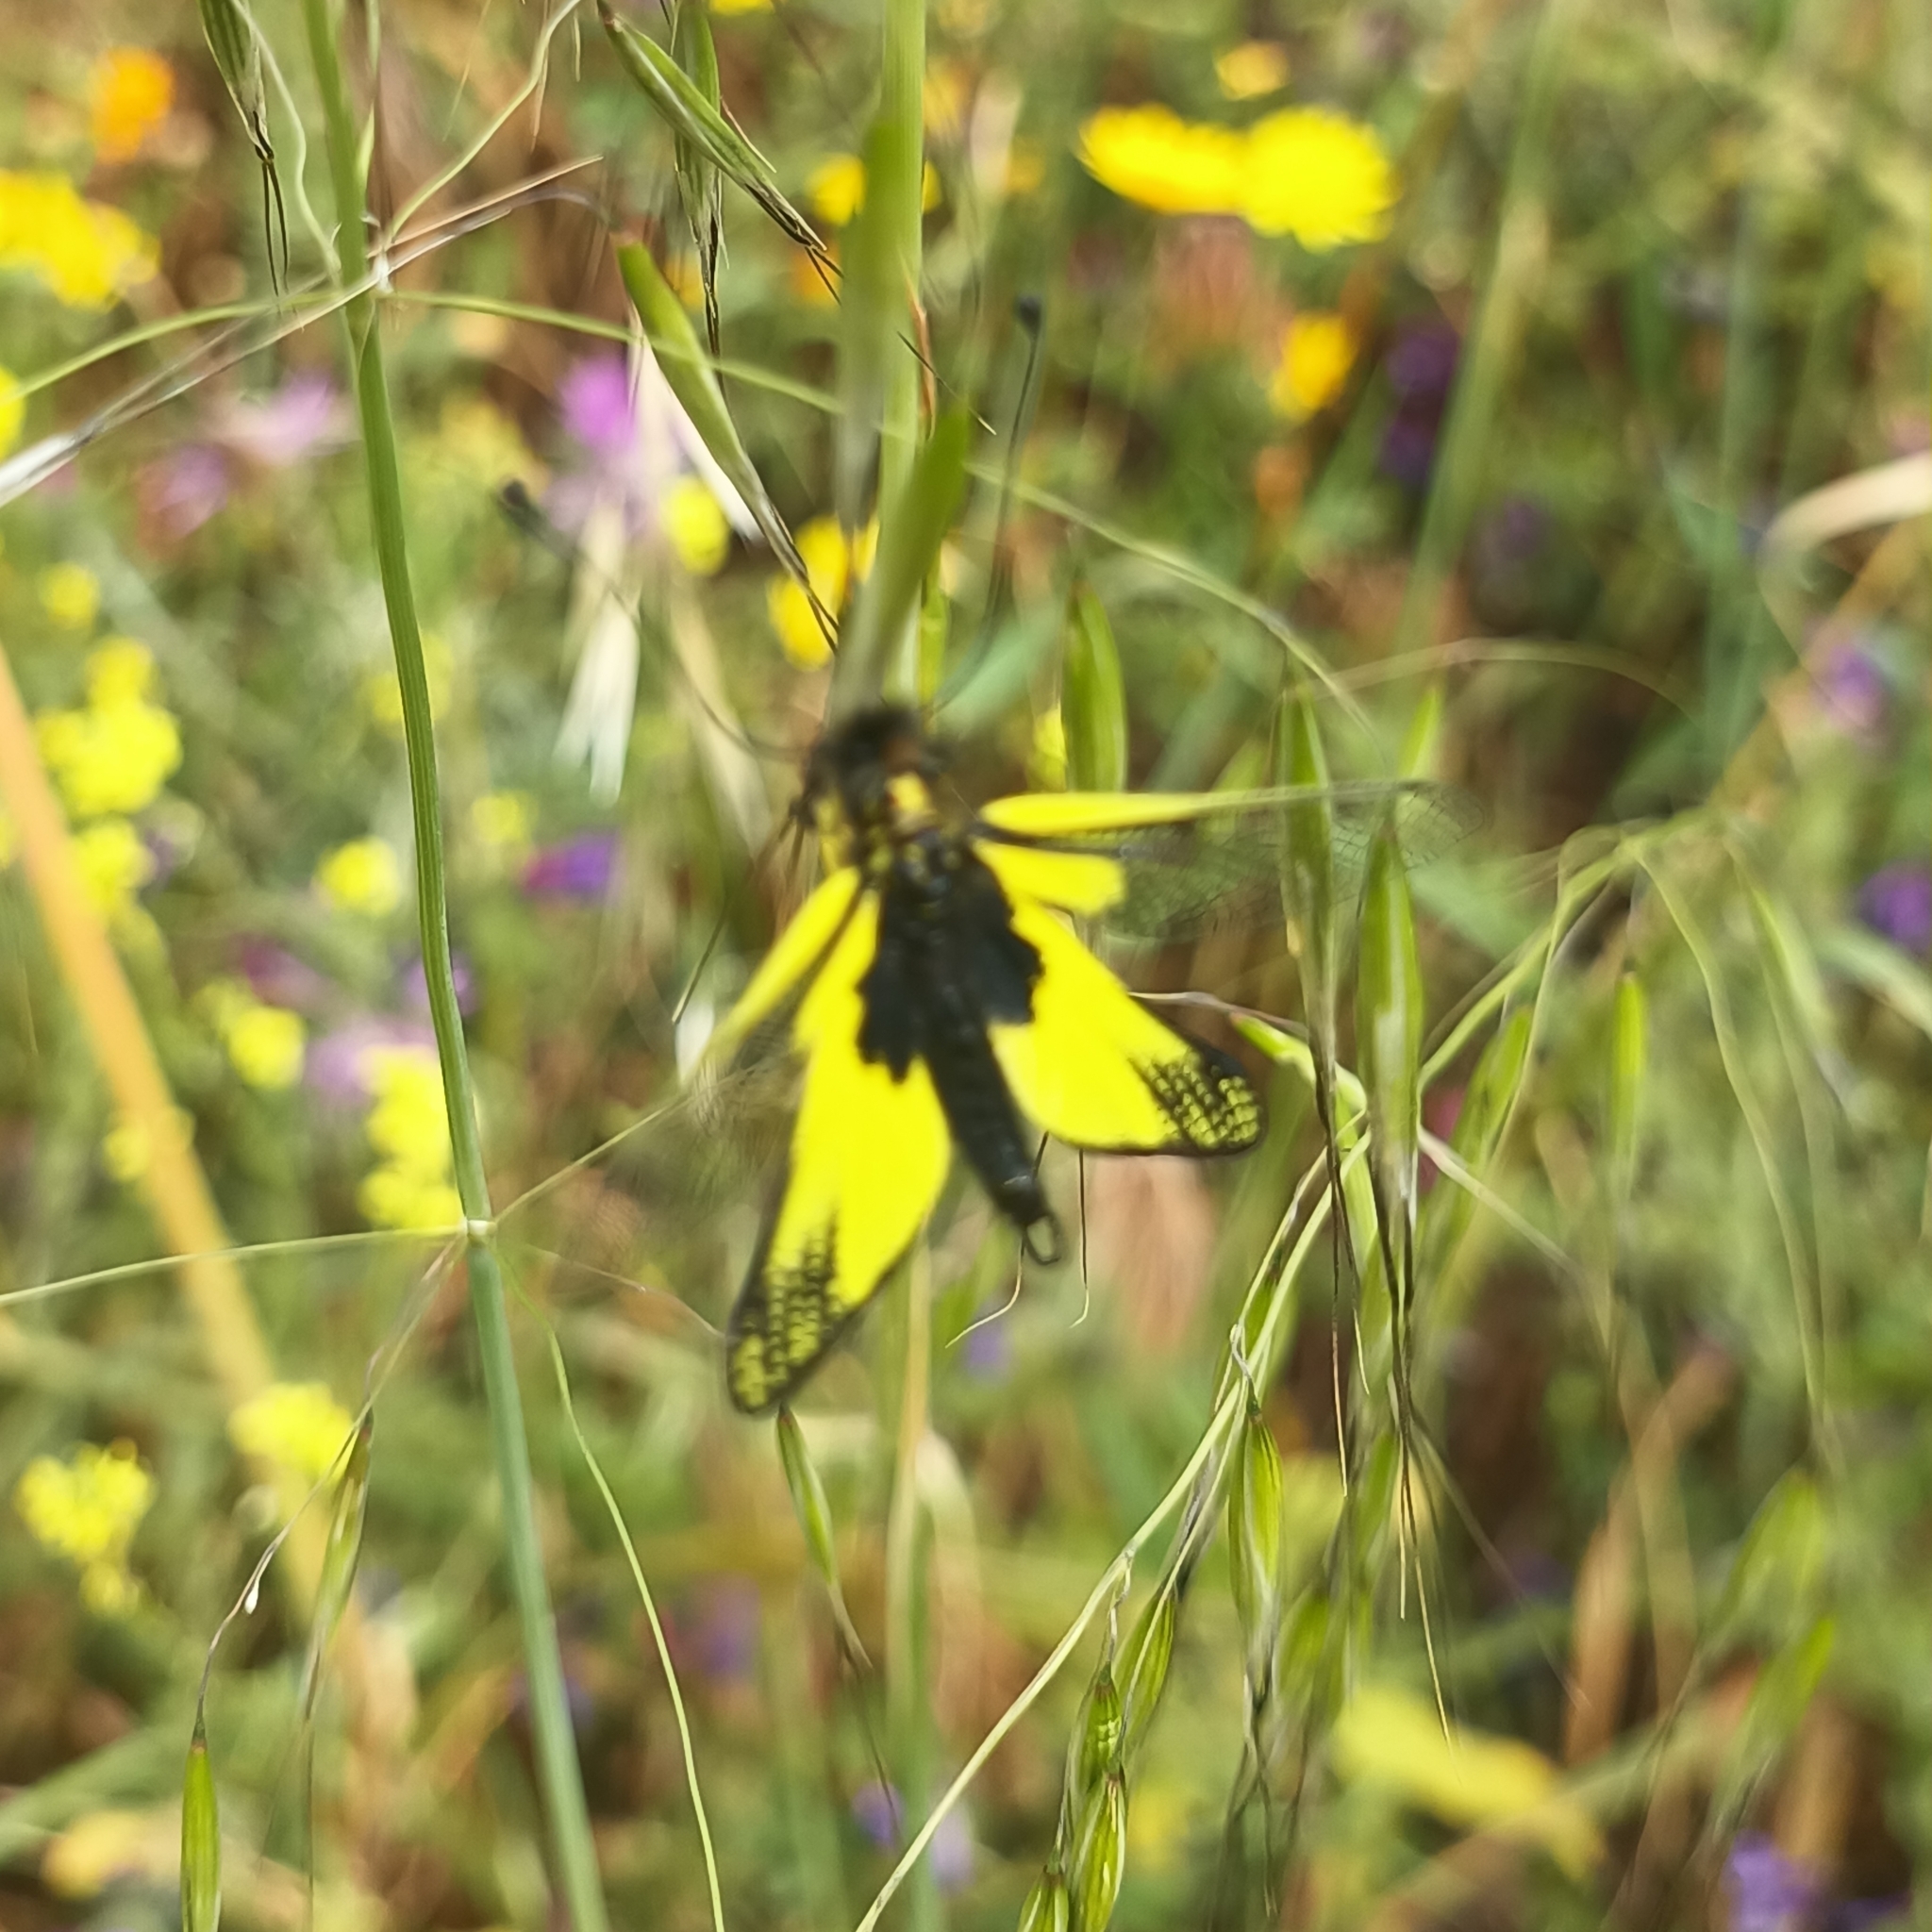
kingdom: Animalia
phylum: Arthropoda
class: Insecta
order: Neuroptera
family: Ascalaphidae
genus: Libelloides
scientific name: Libelloides latinus
